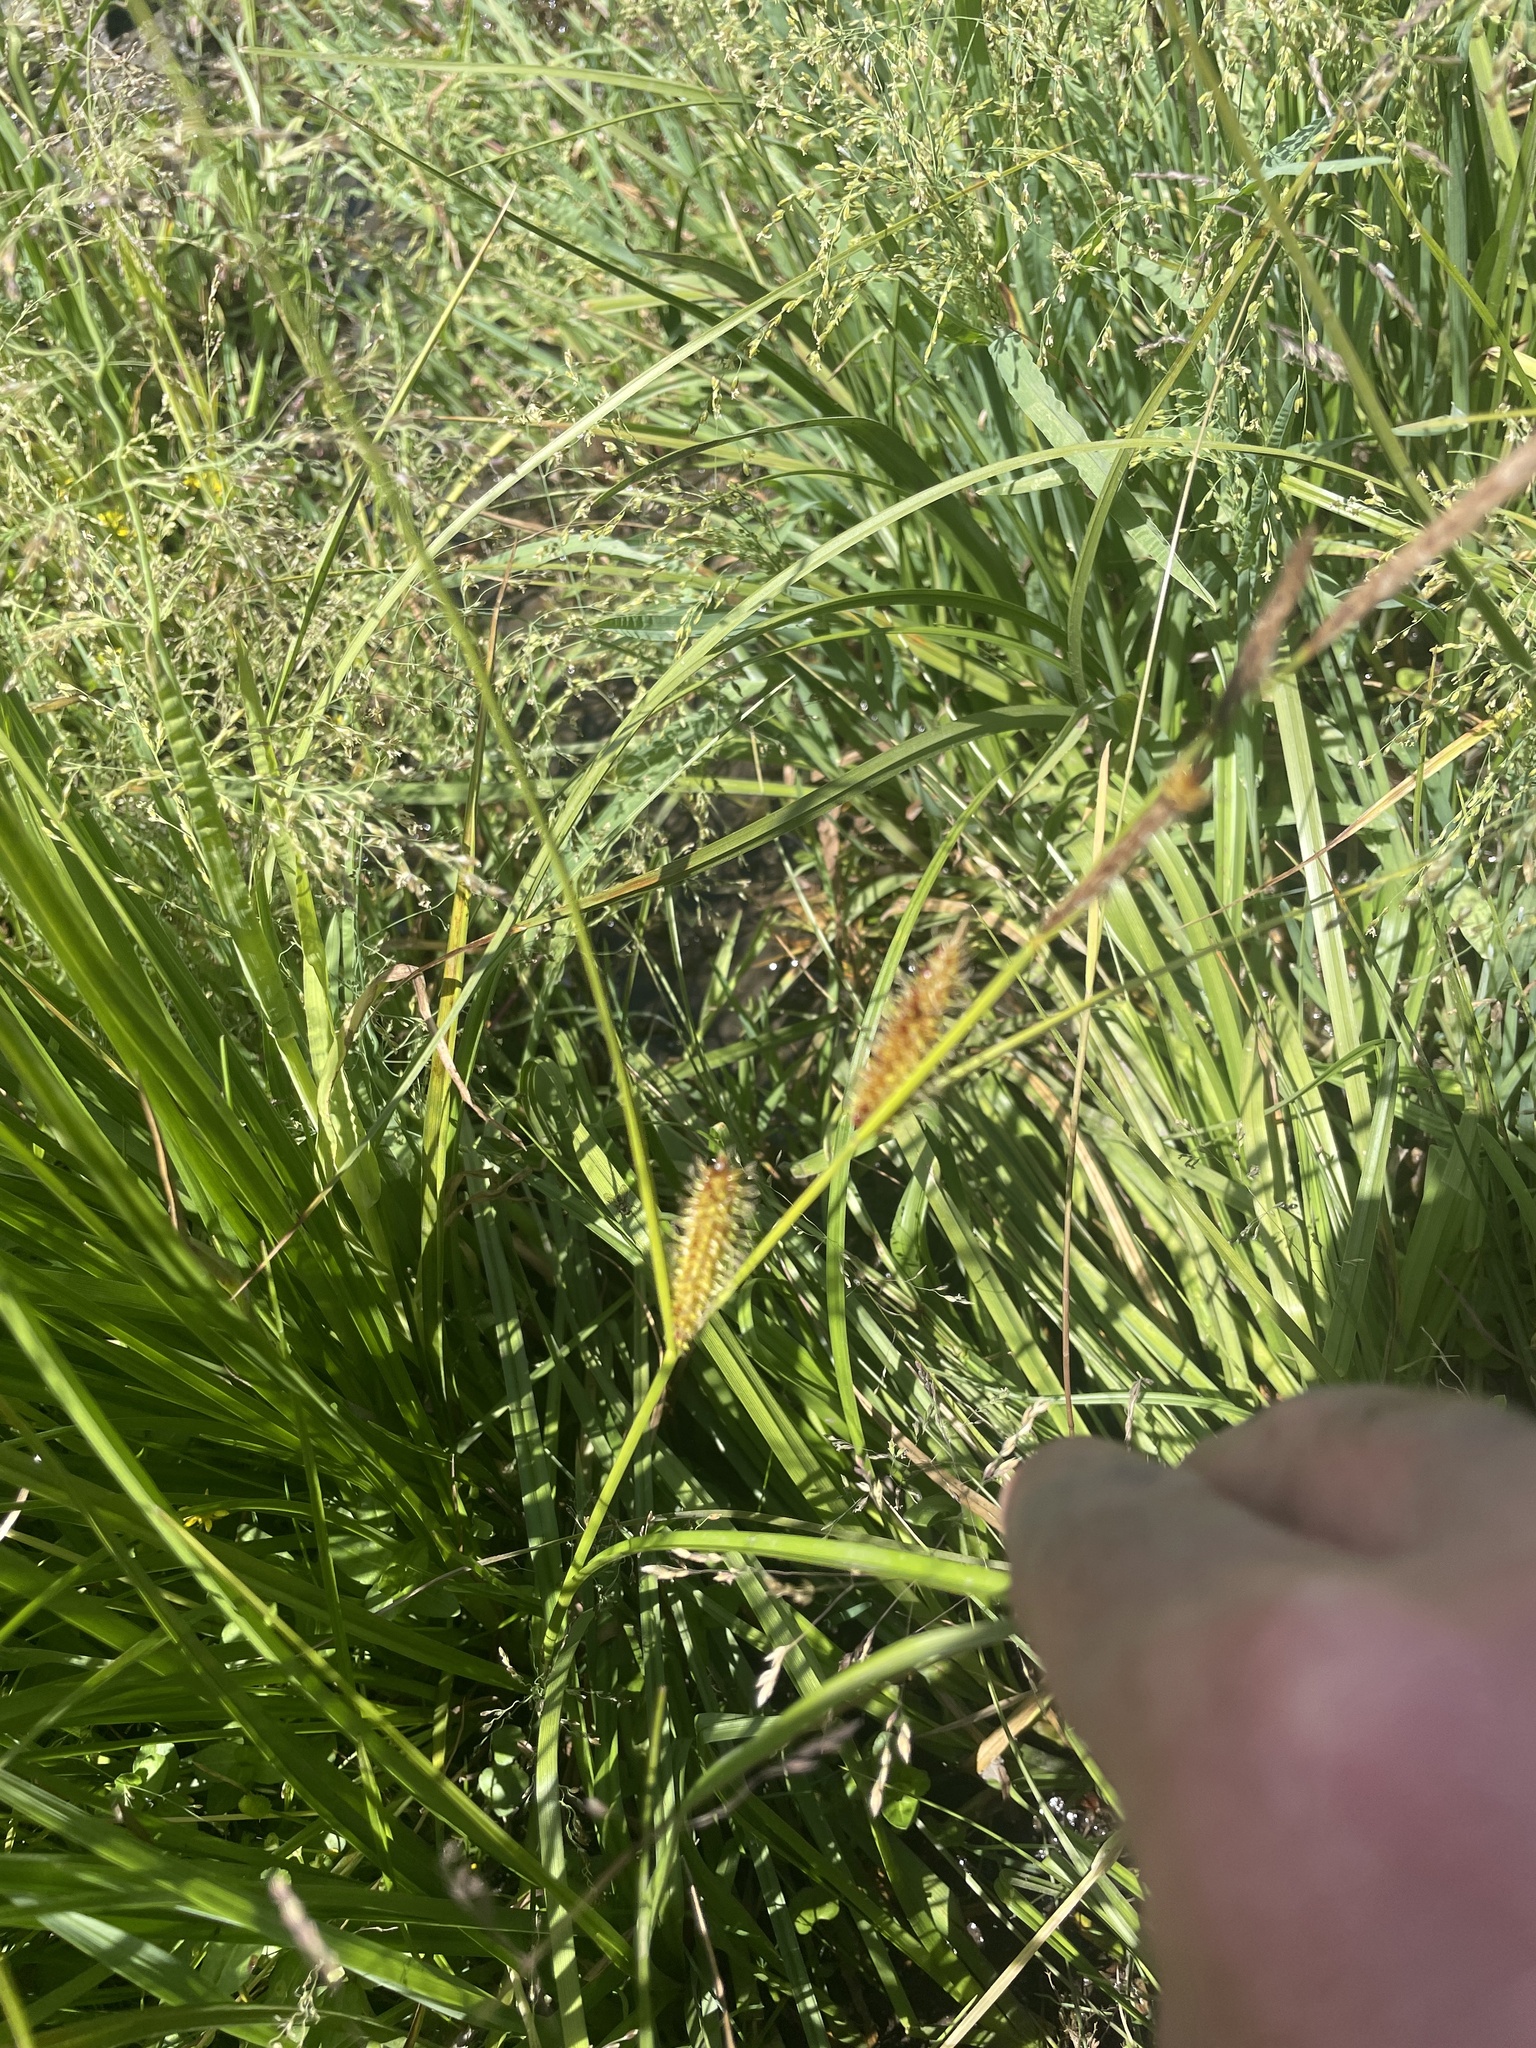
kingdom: Plantae
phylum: Tracheophyta
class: Liliopsida
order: Poales
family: Cyperaceae
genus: Carex
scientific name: Carex utriculata
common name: Beaked sedge
